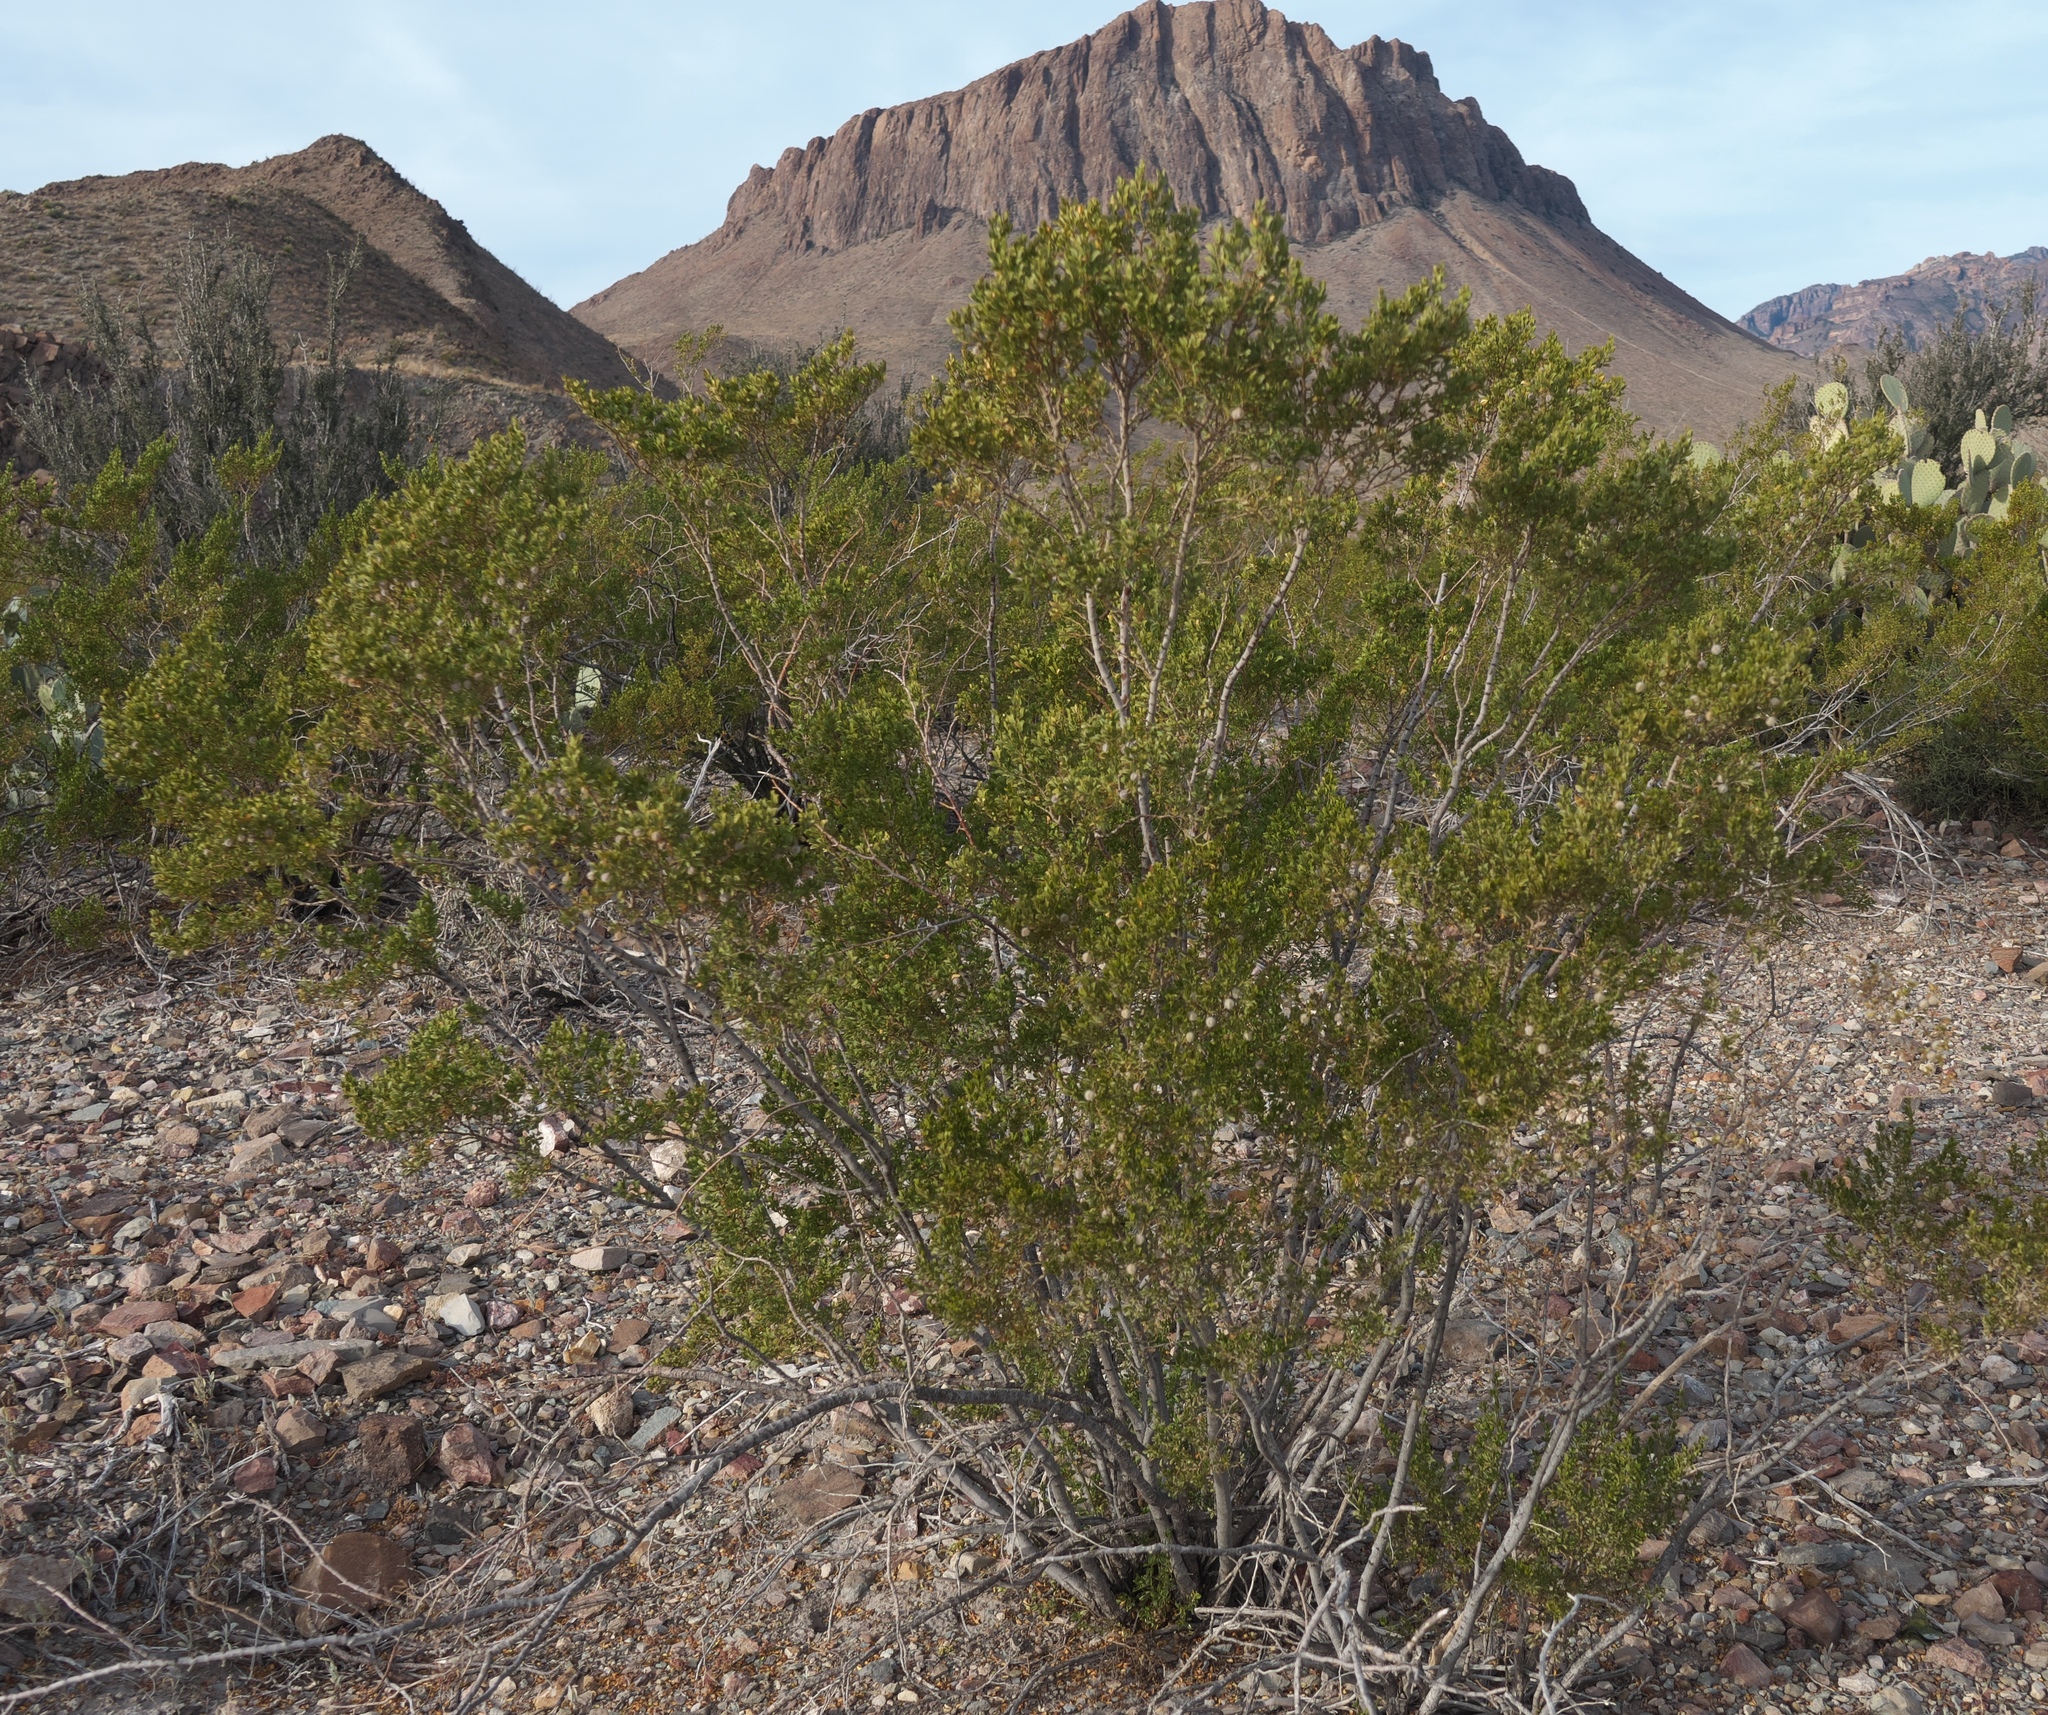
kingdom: Plantae
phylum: Tracheophyta
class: Magnoliopsida
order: Zygophyllales
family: Zygophyllaceae
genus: Larrea
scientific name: Larrea tridentata
